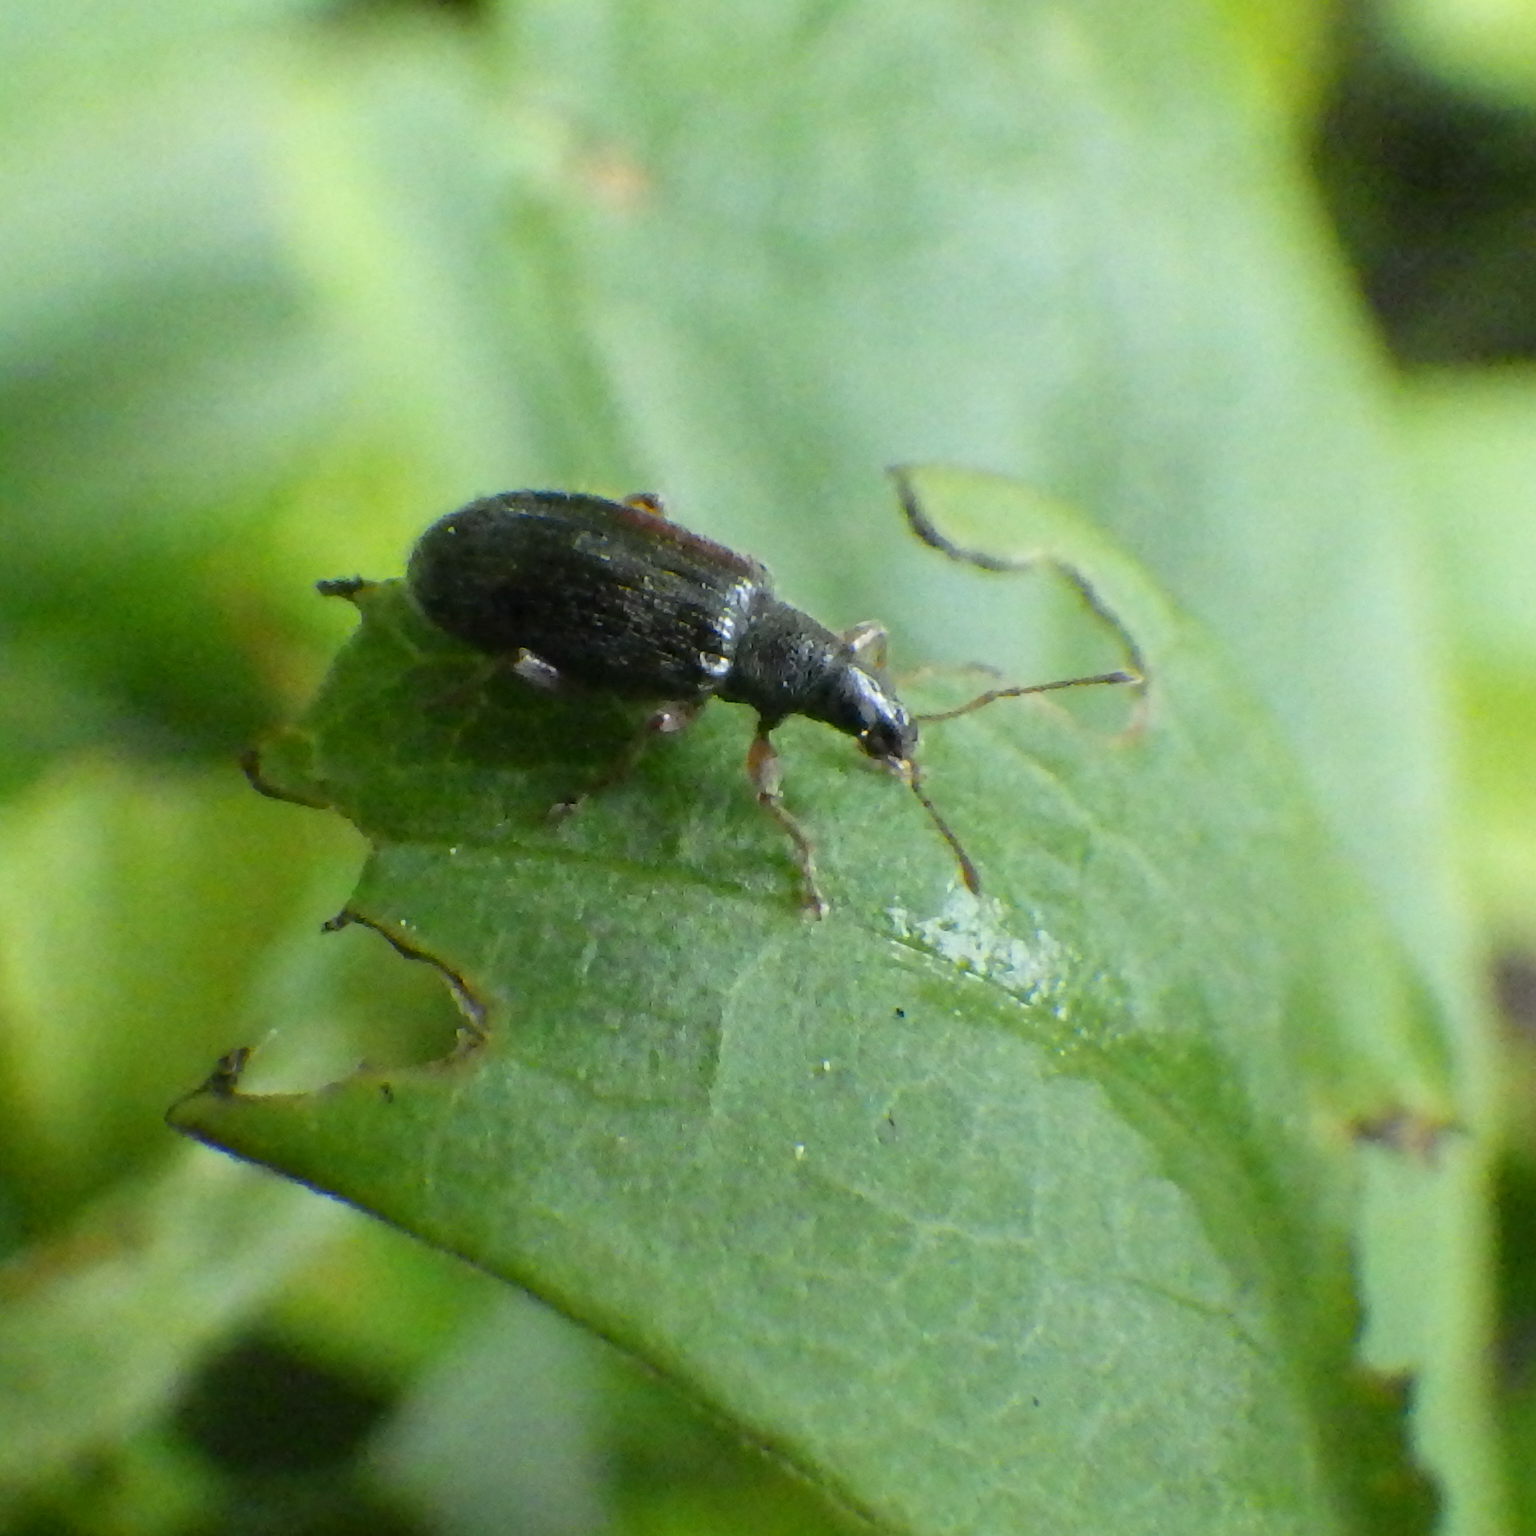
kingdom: Animalia
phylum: Arthropoda
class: Insecta
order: Coleoptera
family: Curculionidae
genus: Phyllobius
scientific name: Phyllobius oblongus
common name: Brown leaf weevil
